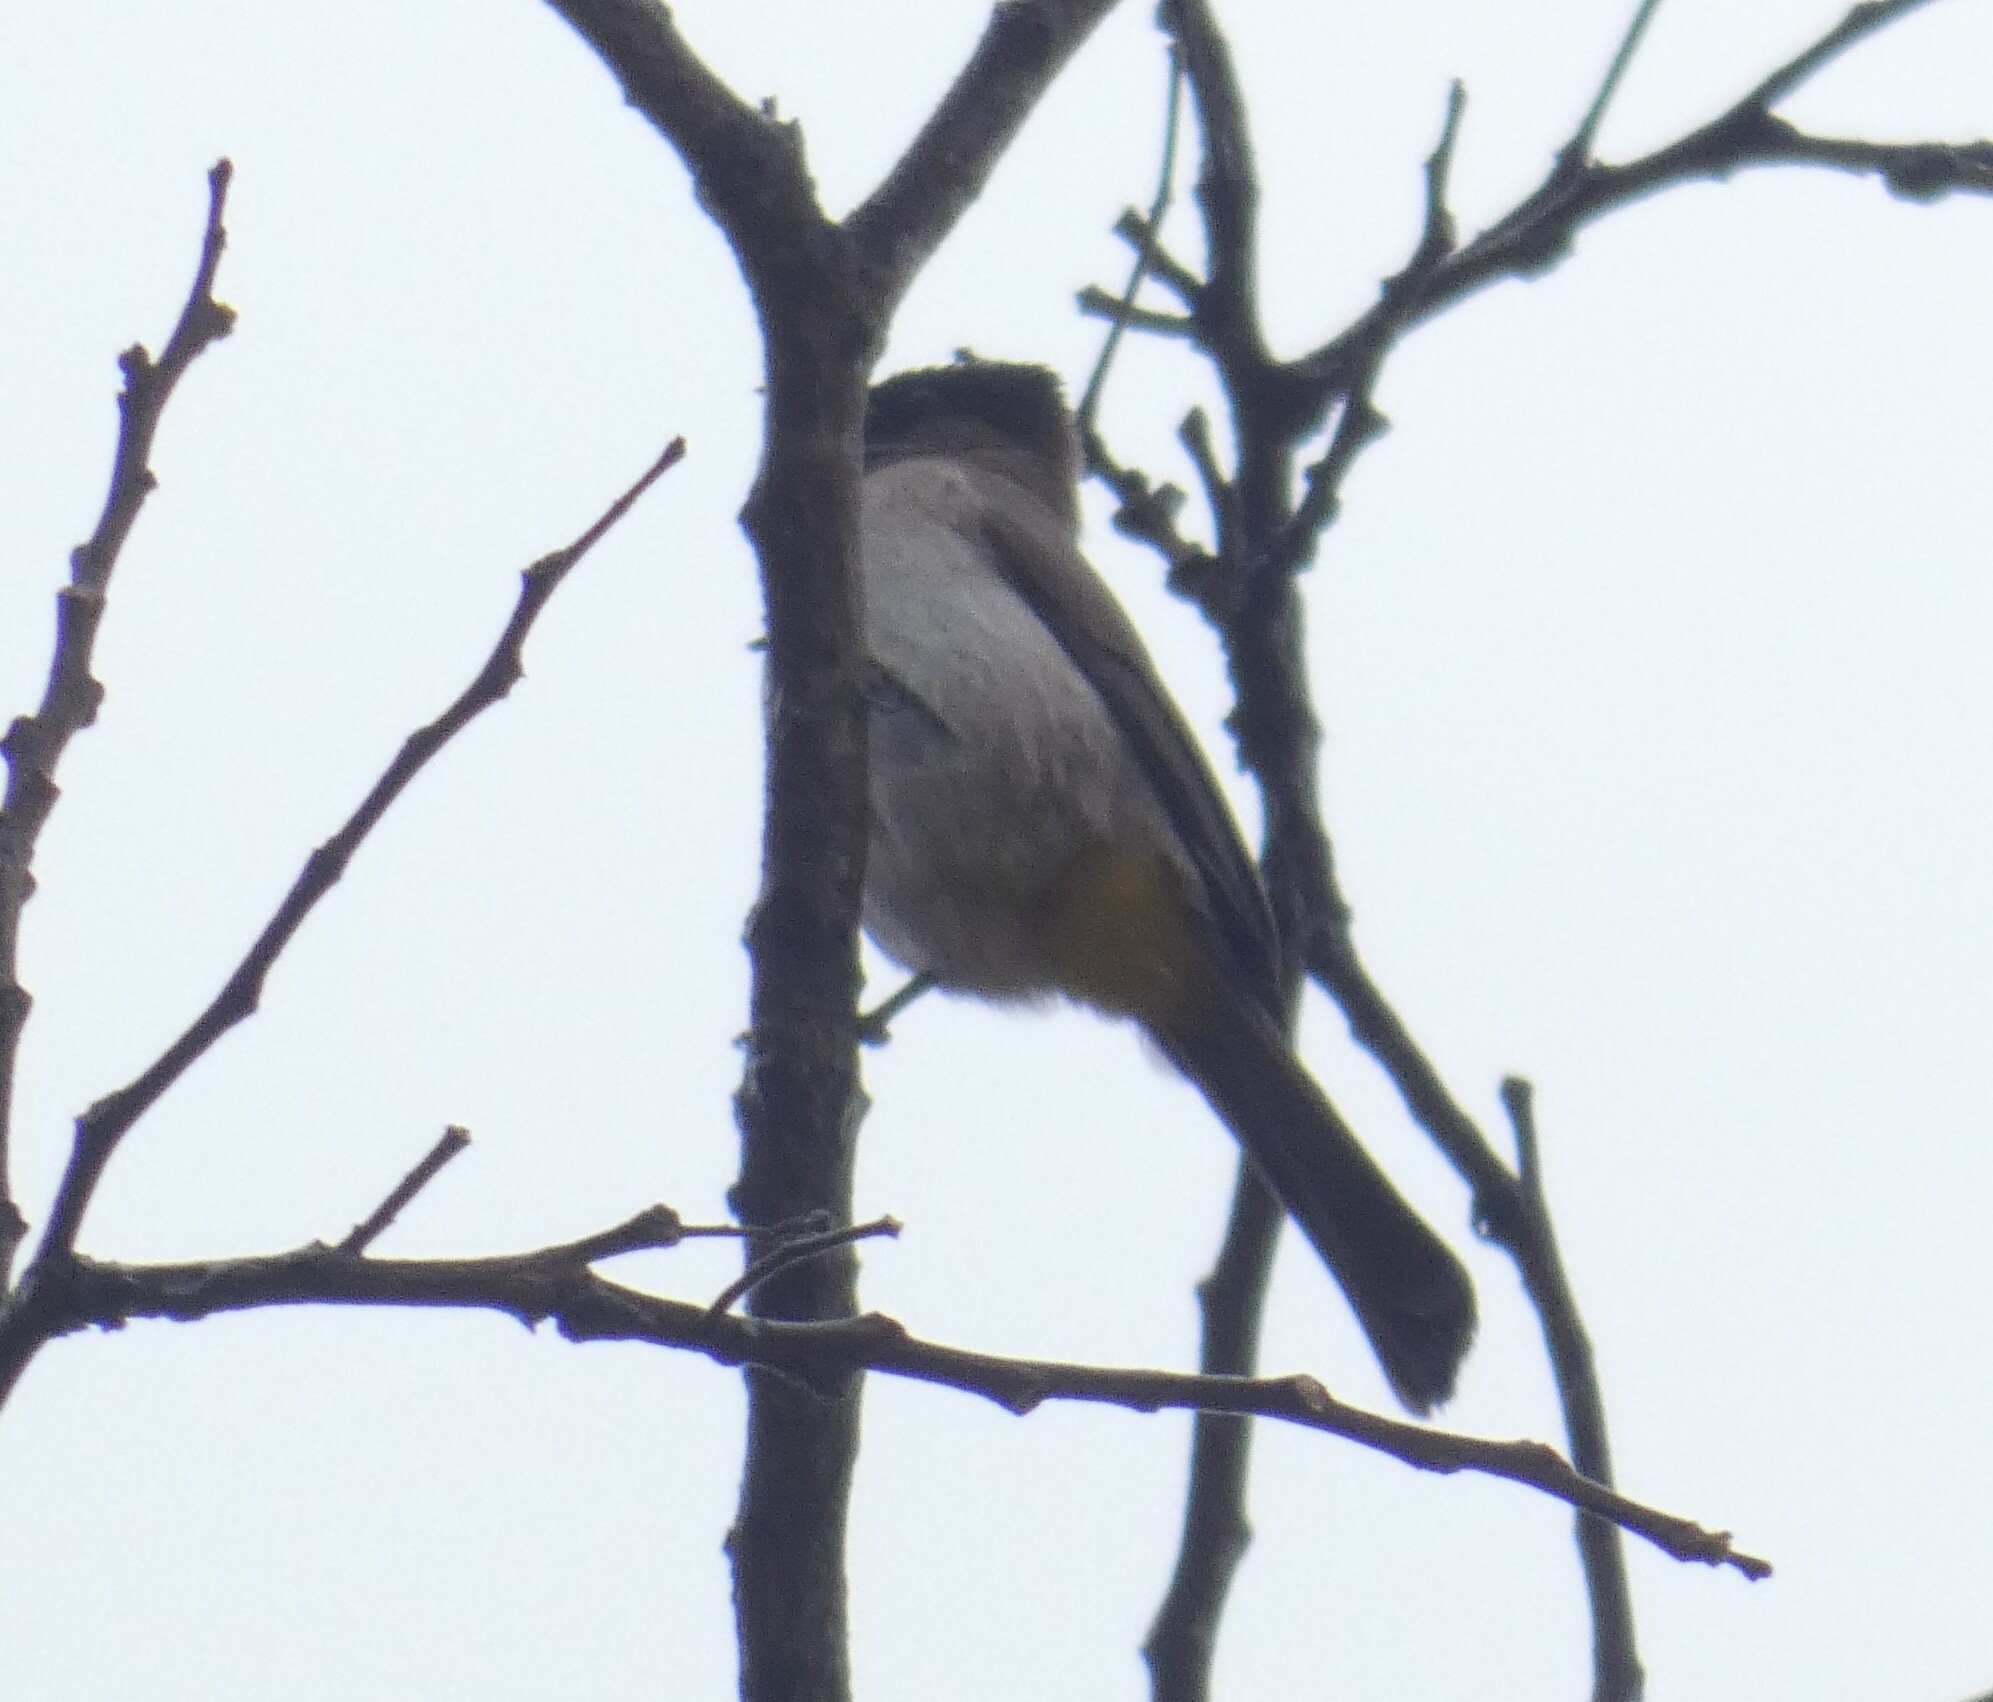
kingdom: Animalia
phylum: Chordata
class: Aves
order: Passeriformes
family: Pycnonotidae
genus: Pycnonotus
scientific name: Pycnonotus barbatus
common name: Common bulbul
